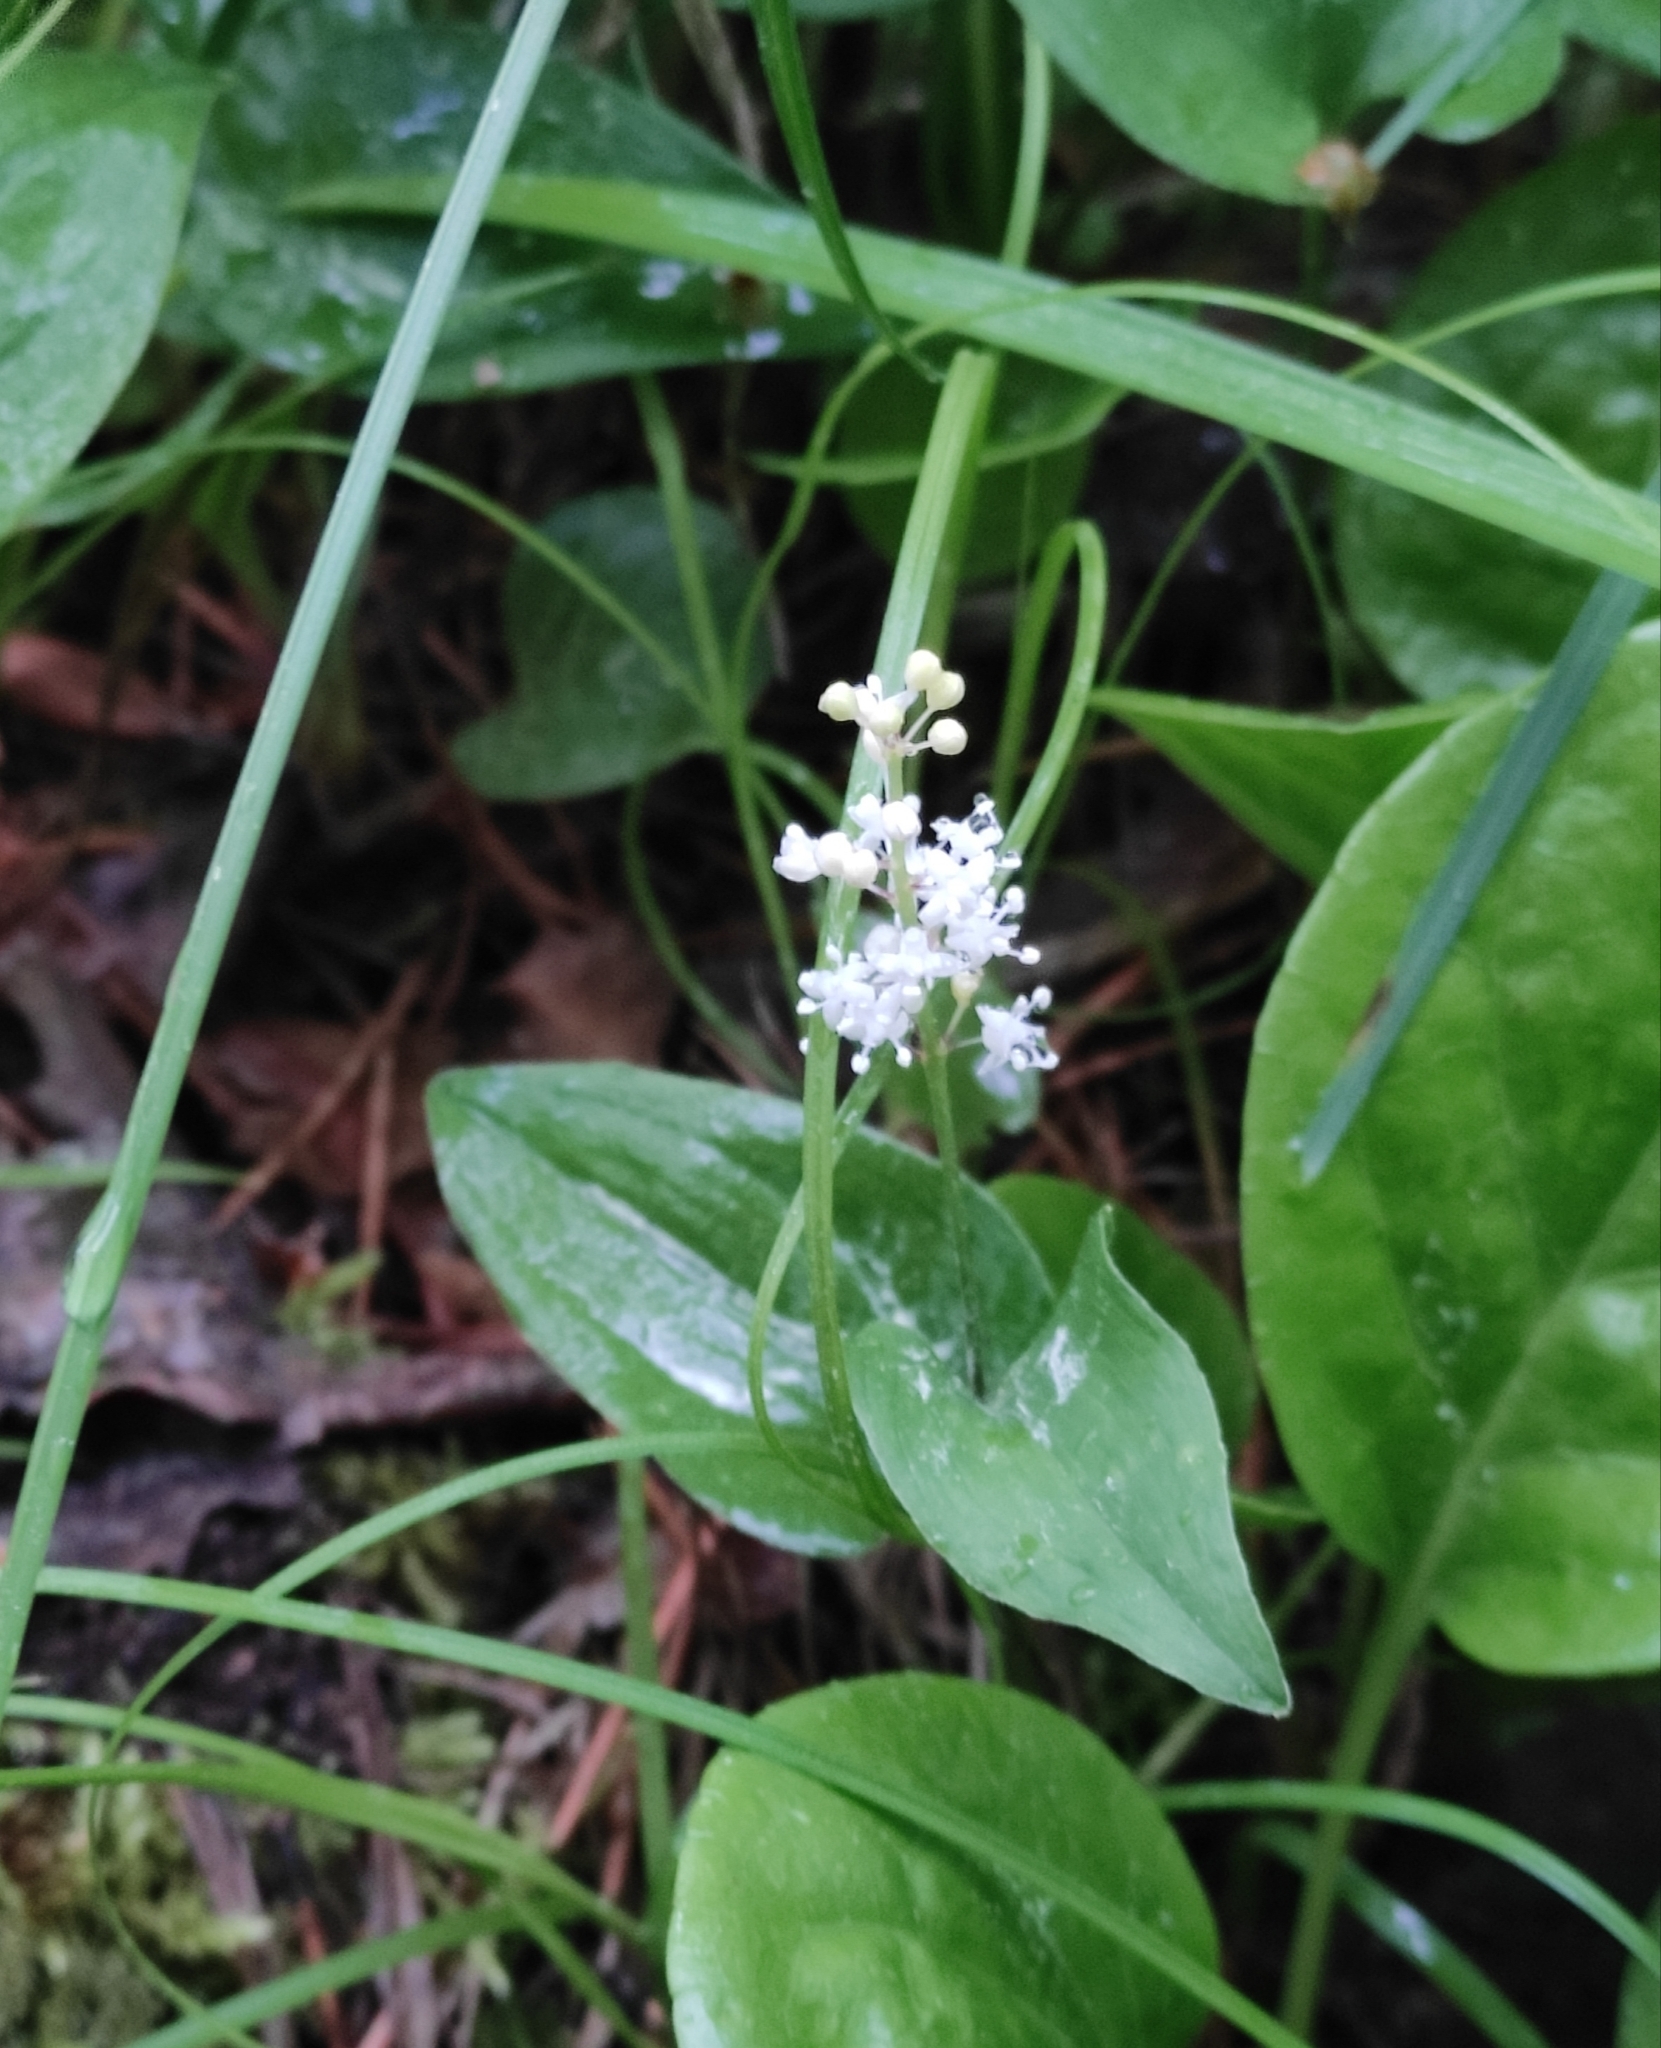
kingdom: Plantae
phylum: Tracheophyta
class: Liliopsida
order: Asparagales
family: Asparagaceae
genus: Maianthemum
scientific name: Maianthemum bifolium
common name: May lily
